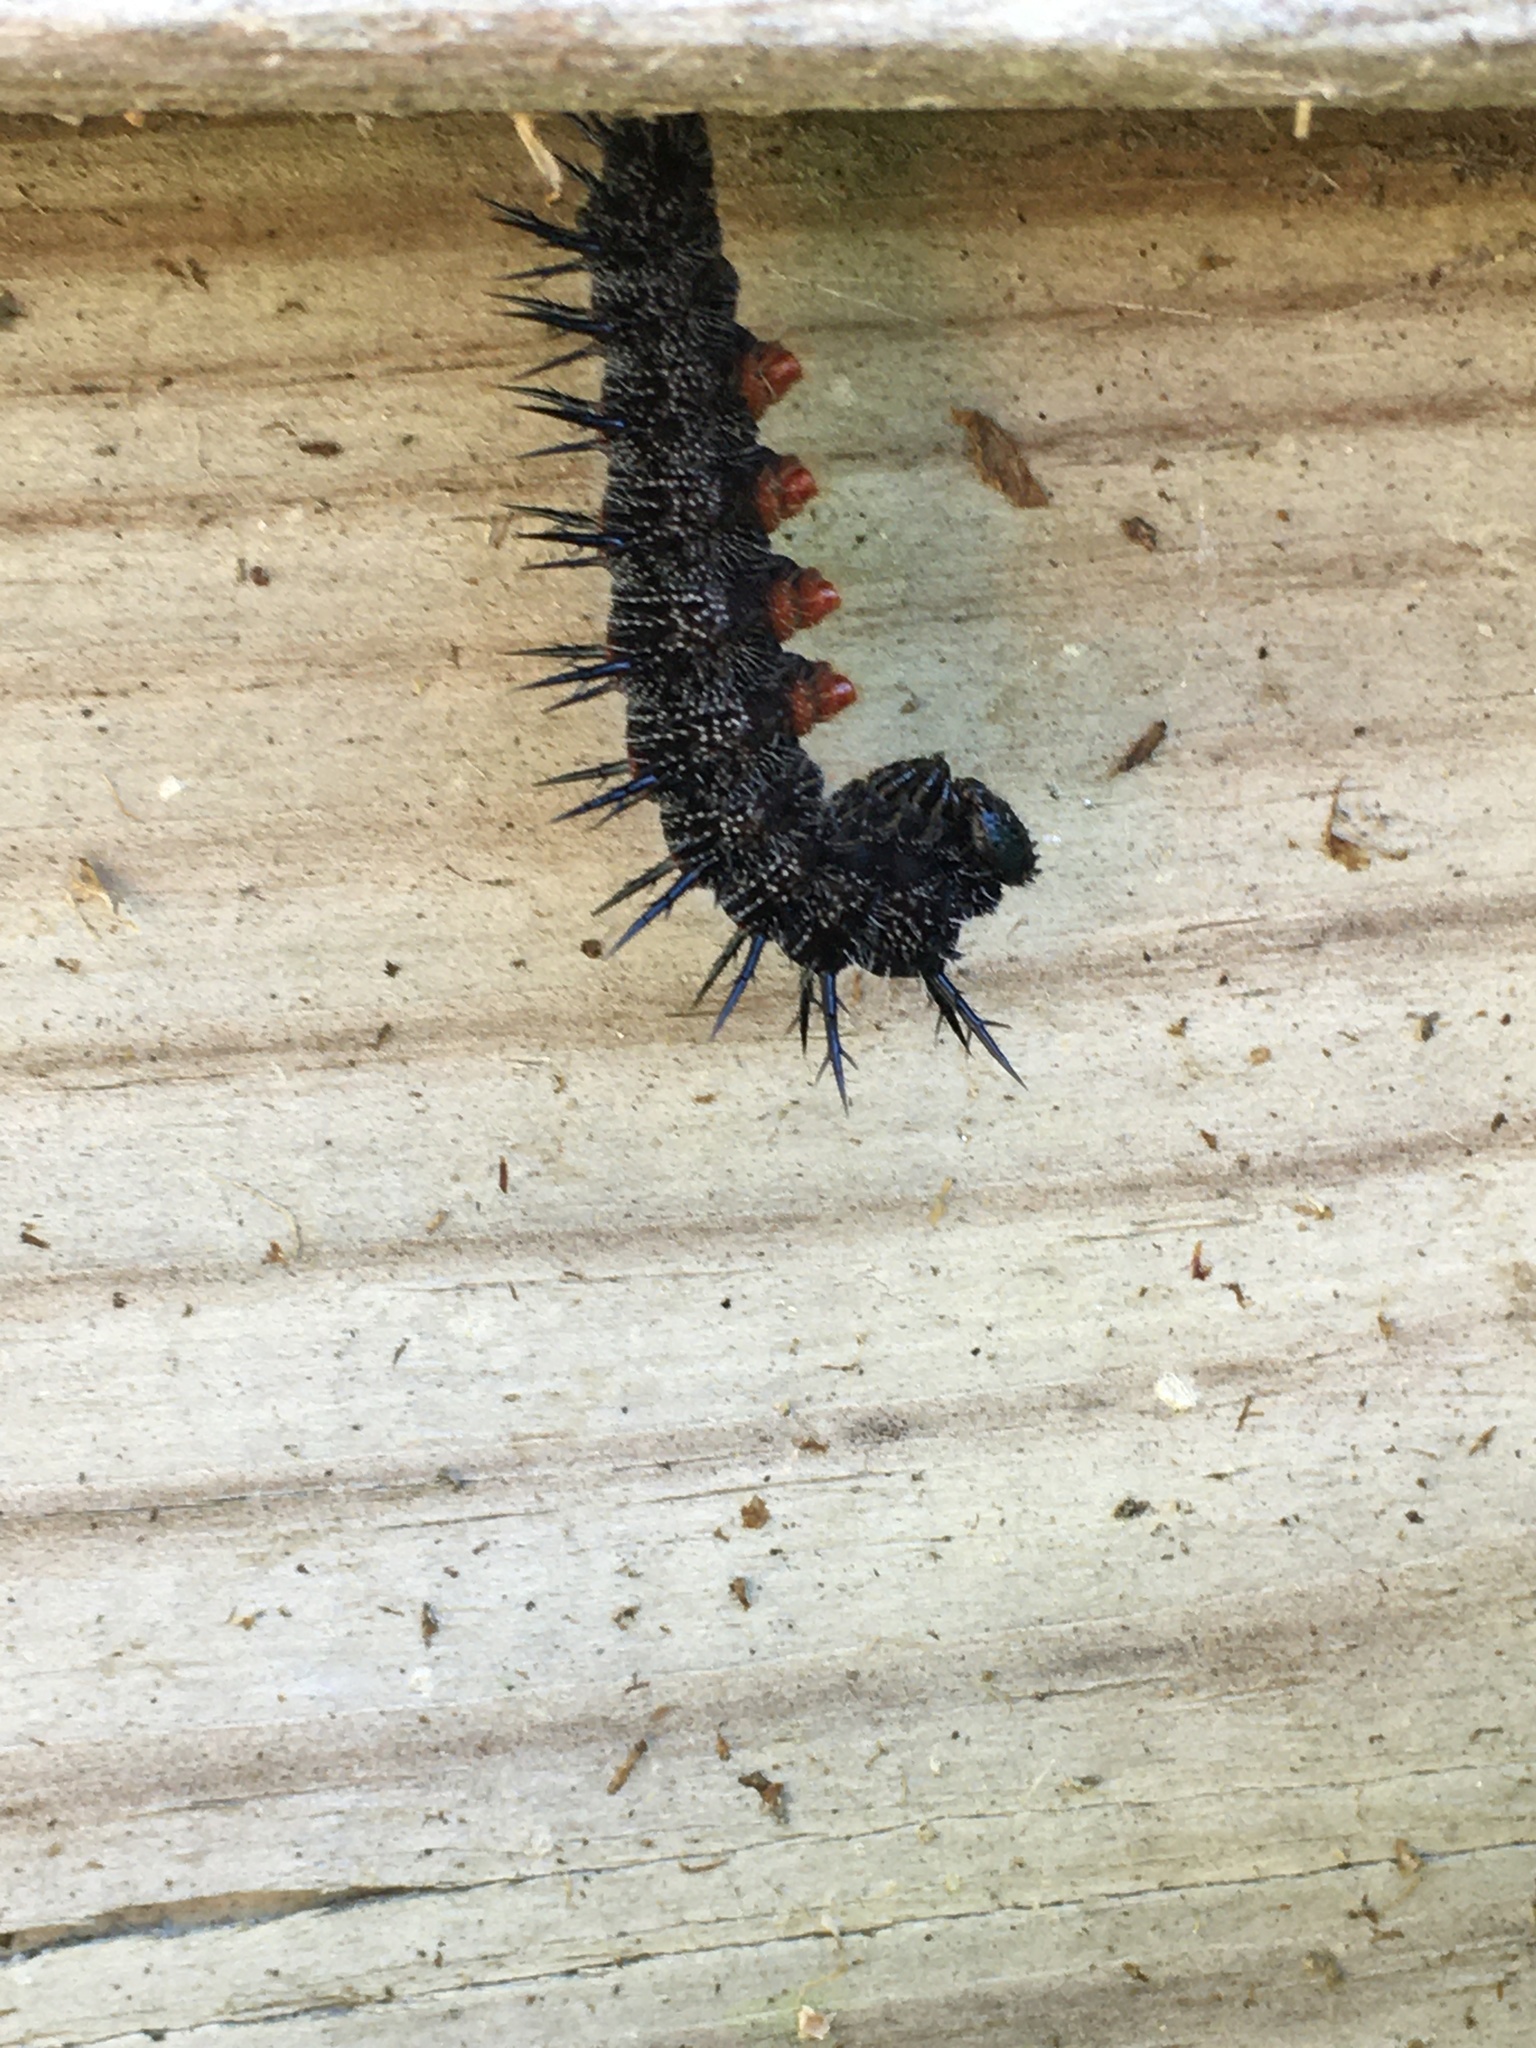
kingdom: Animalia
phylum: Arthropoda
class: Insecta
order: Lepidoptera
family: Nymphalidae
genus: Nymphalis
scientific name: Nymphalis antiopa
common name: Camberwell beauty
